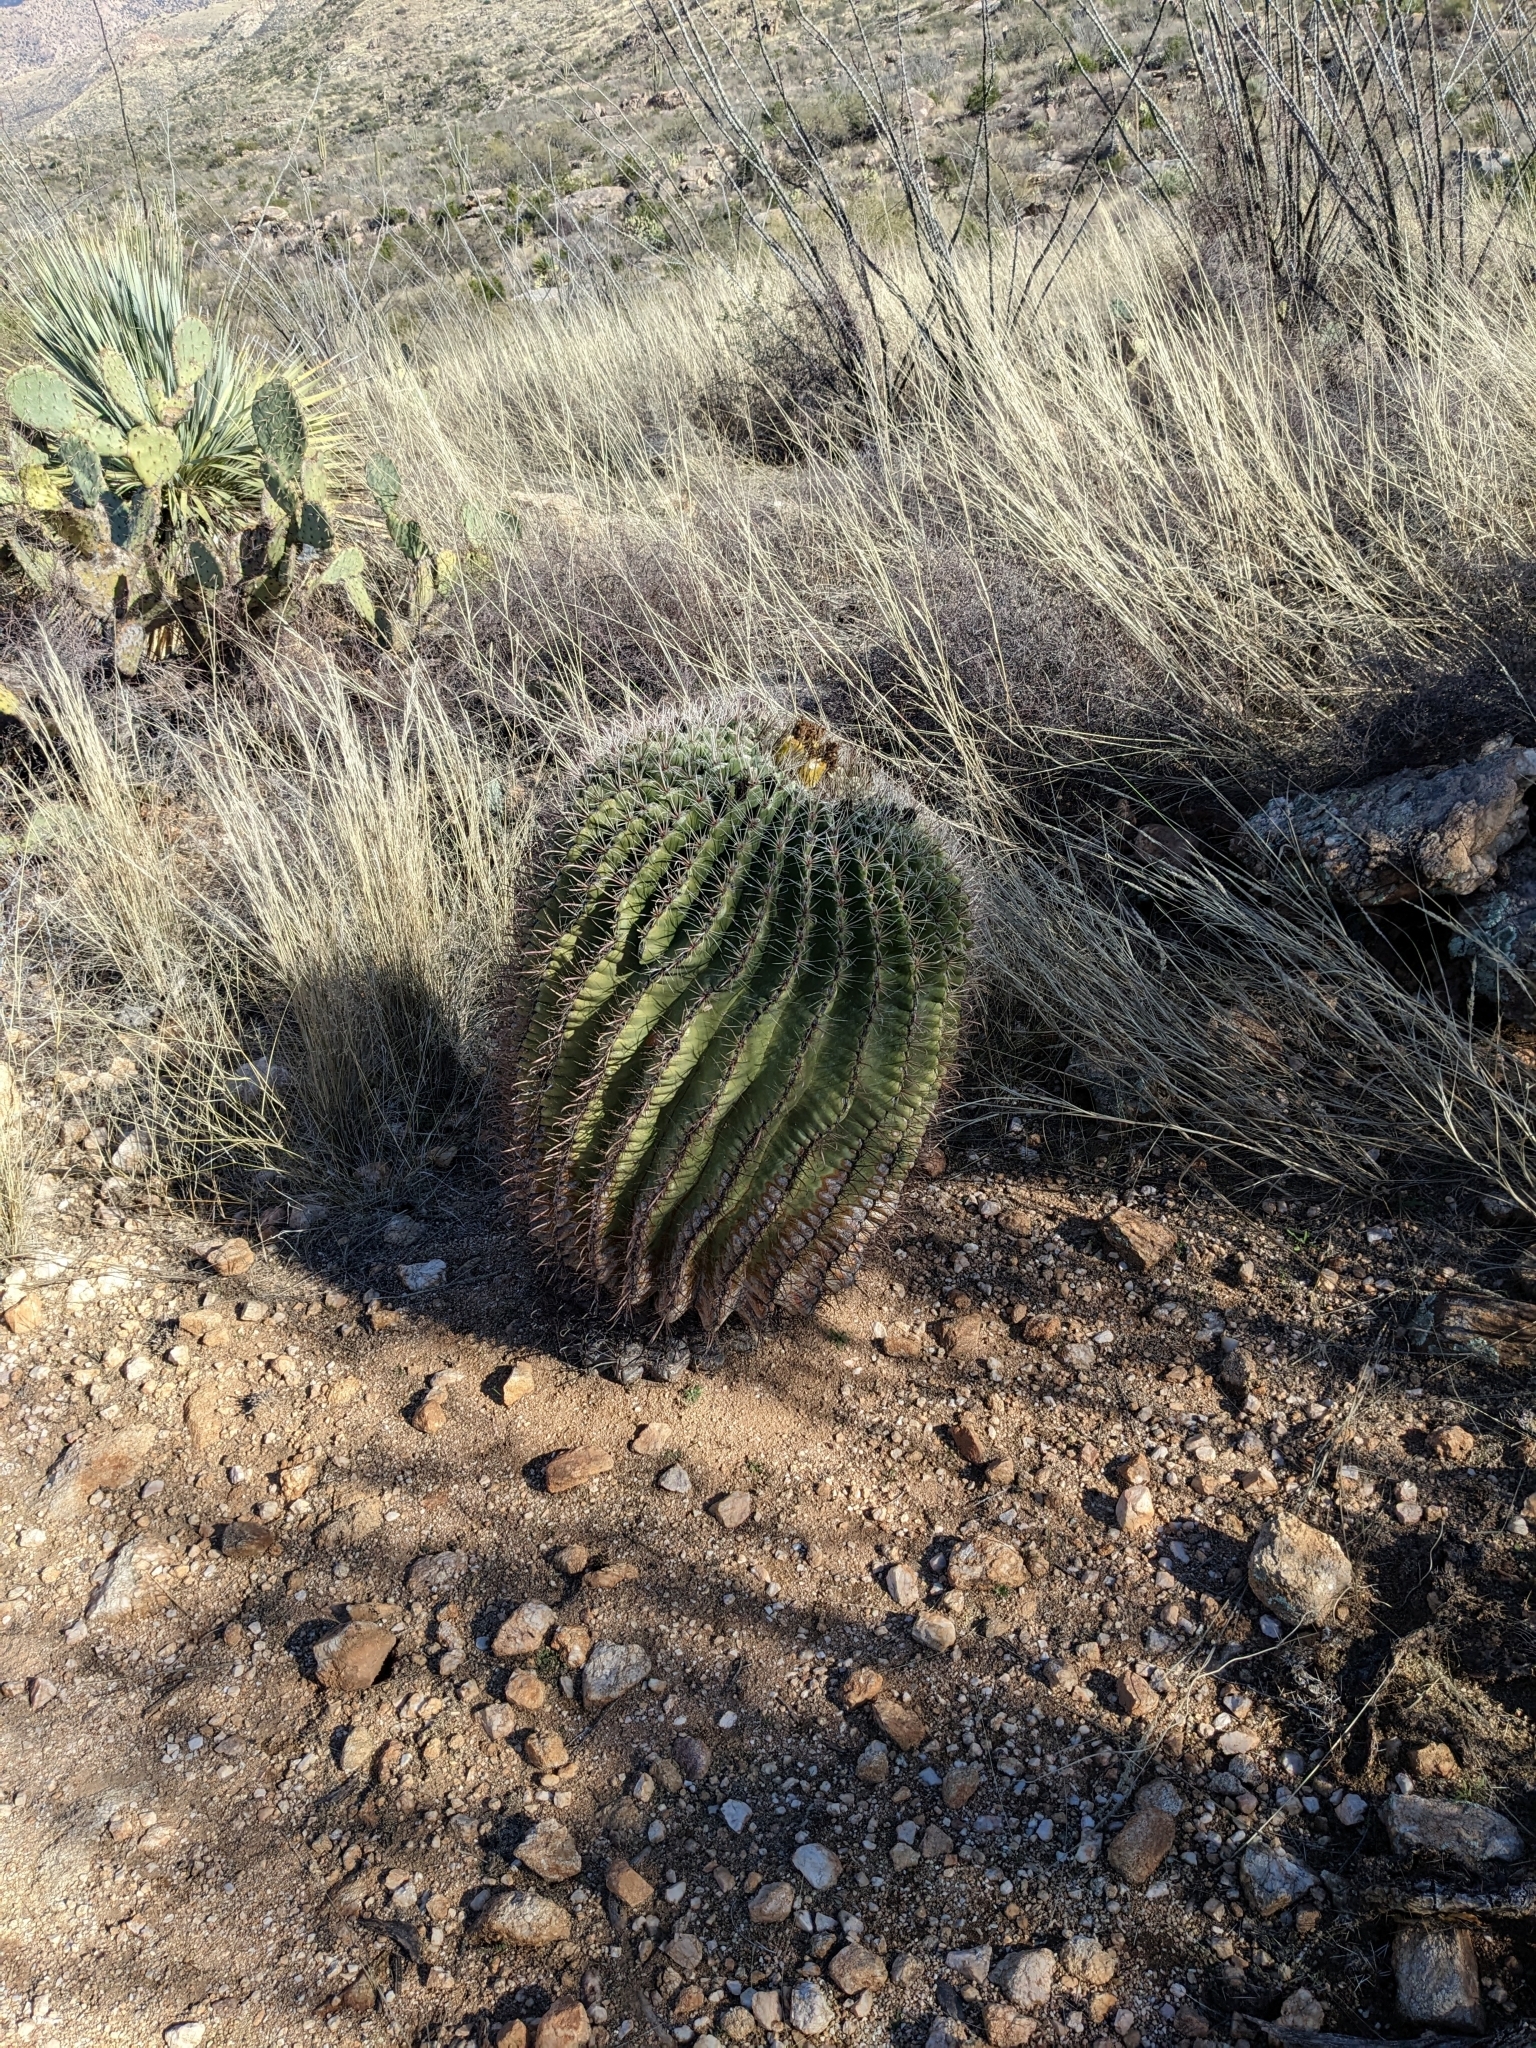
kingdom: Plantae
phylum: Tracheophyta
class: Magnoliopsida
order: Caryophyllales
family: Cactaceae
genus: Ferocactus
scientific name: Ferocactus wislizeni
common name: Candy barrel cactus
